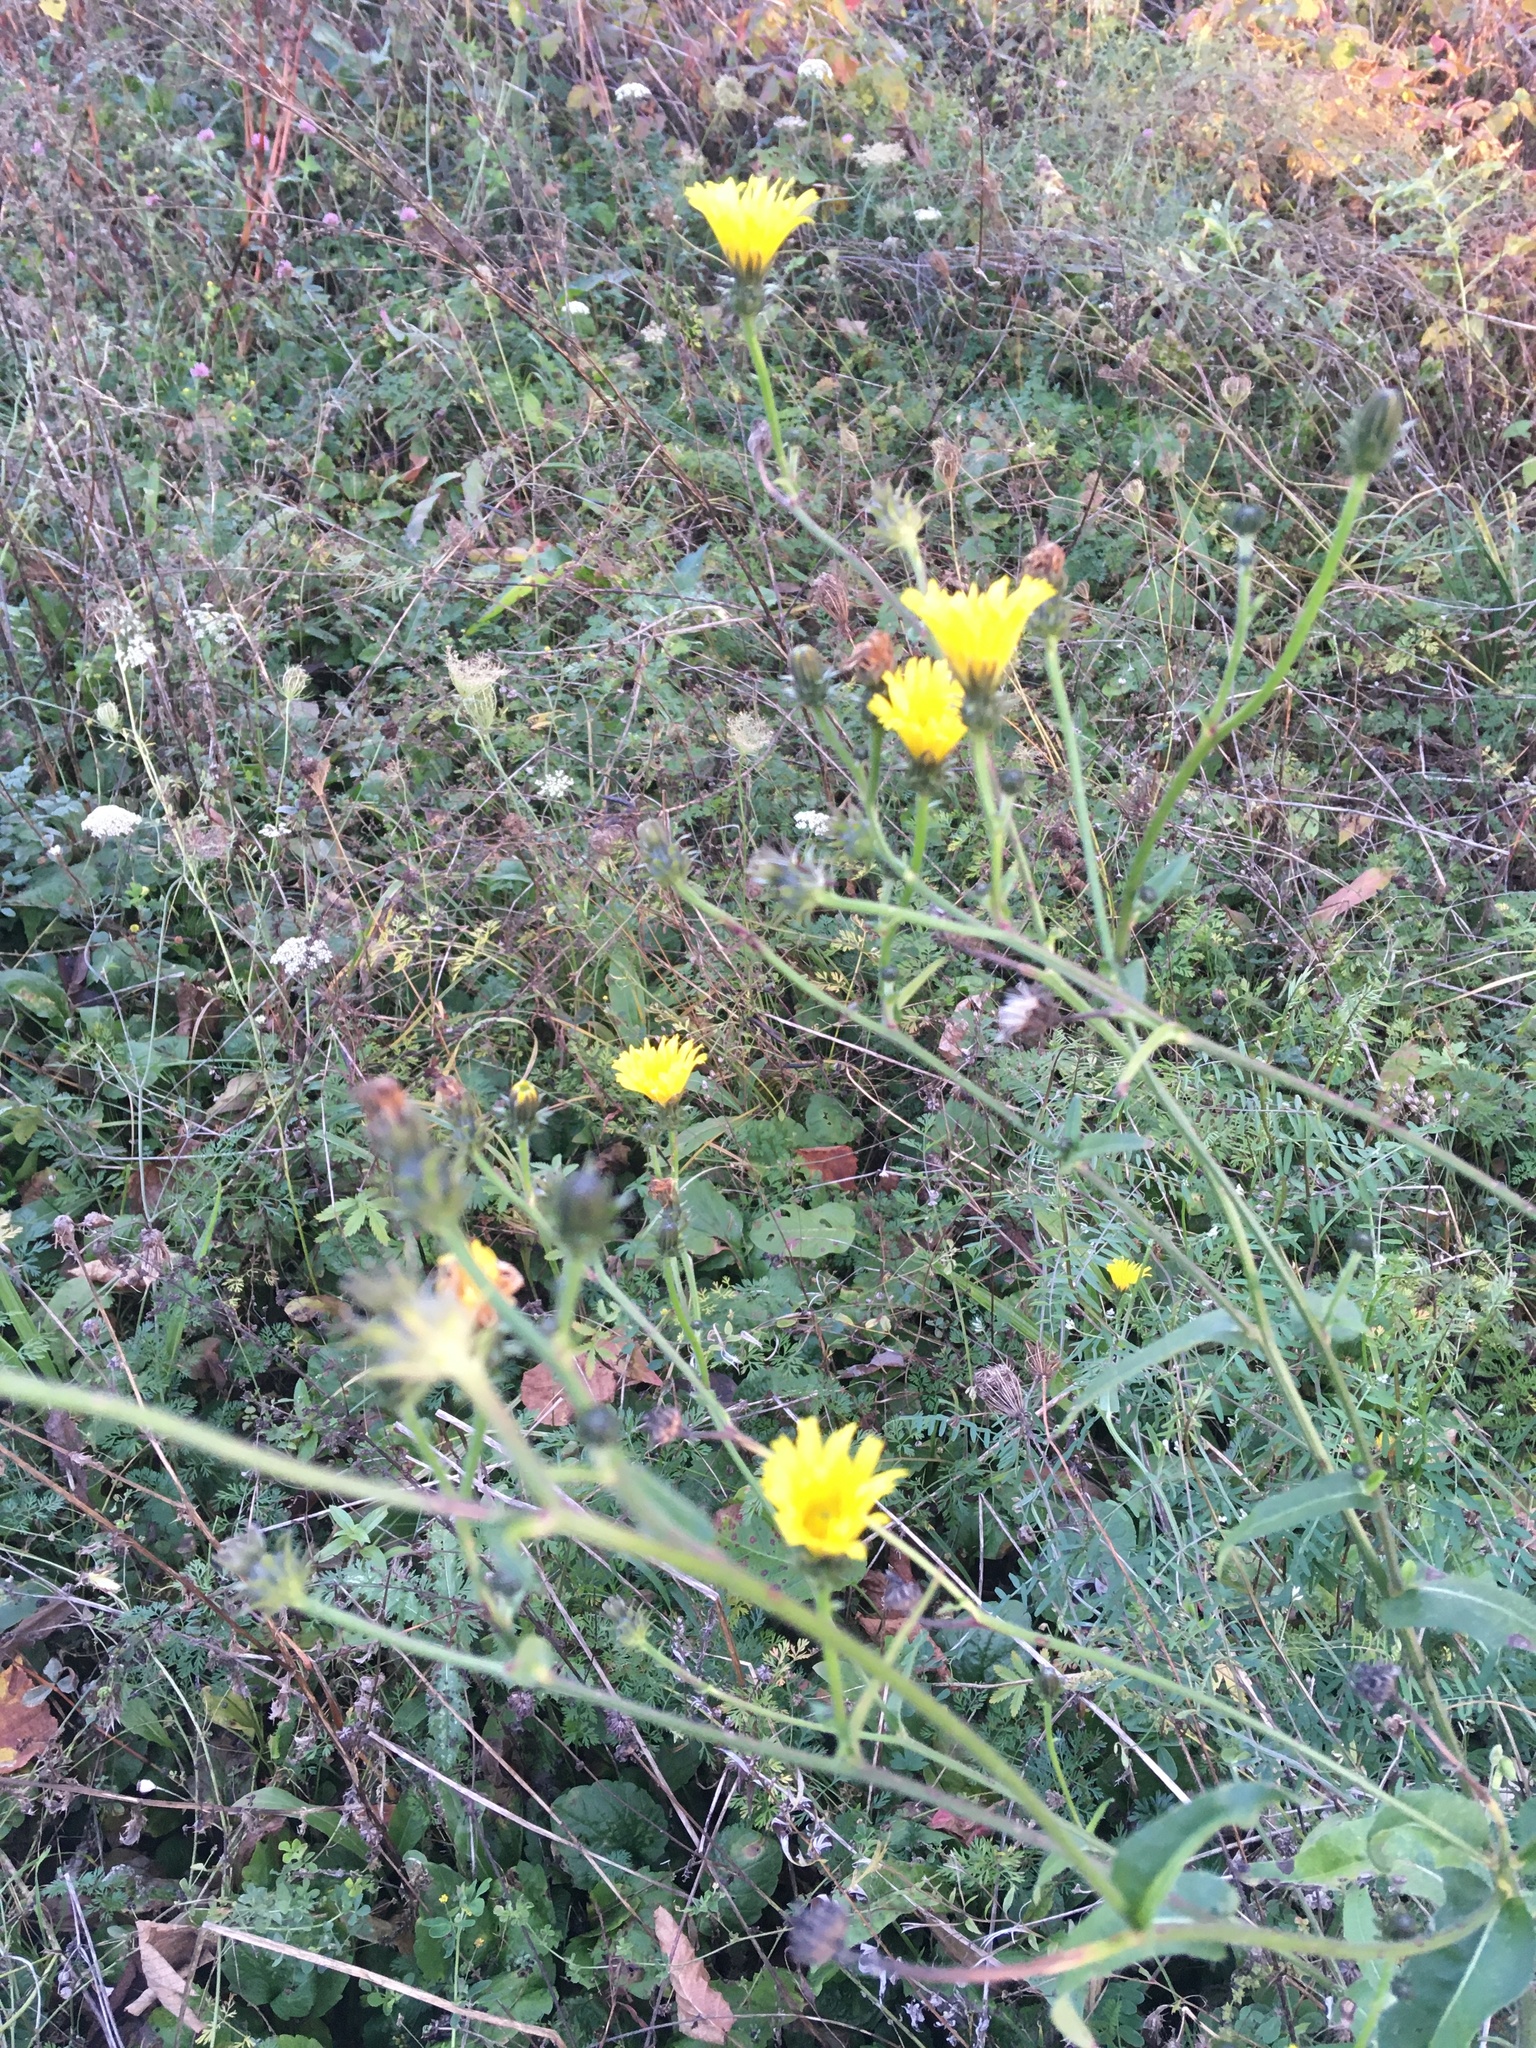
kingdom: Plantae
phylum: Tracheophyta
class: Magnoliopsida
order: Asterales
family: Asteraceae
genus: Picris
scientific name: Picris hieracioides
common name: Hawkweed oxtongue
